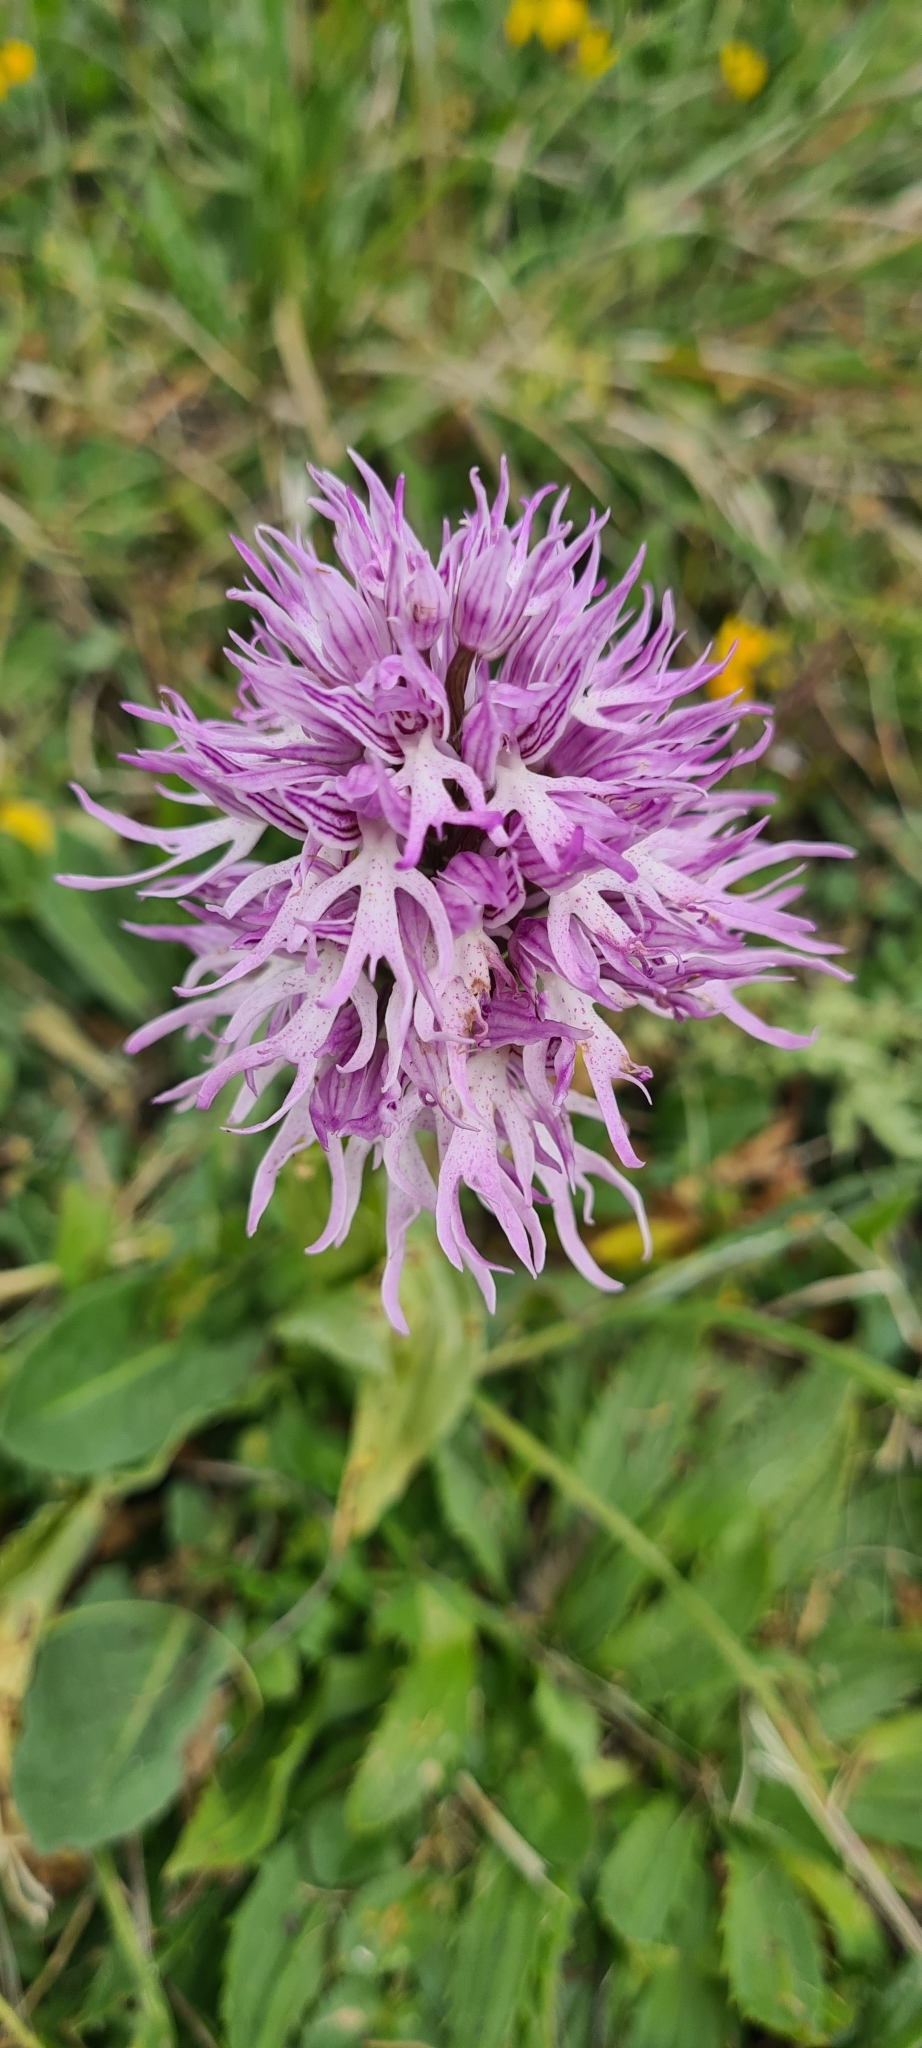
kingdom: Plantae
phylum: Tracheophyta
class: Liliopsida
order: Asparagales
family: Orchidaceae
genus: Orchis
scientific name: Orchis italica
